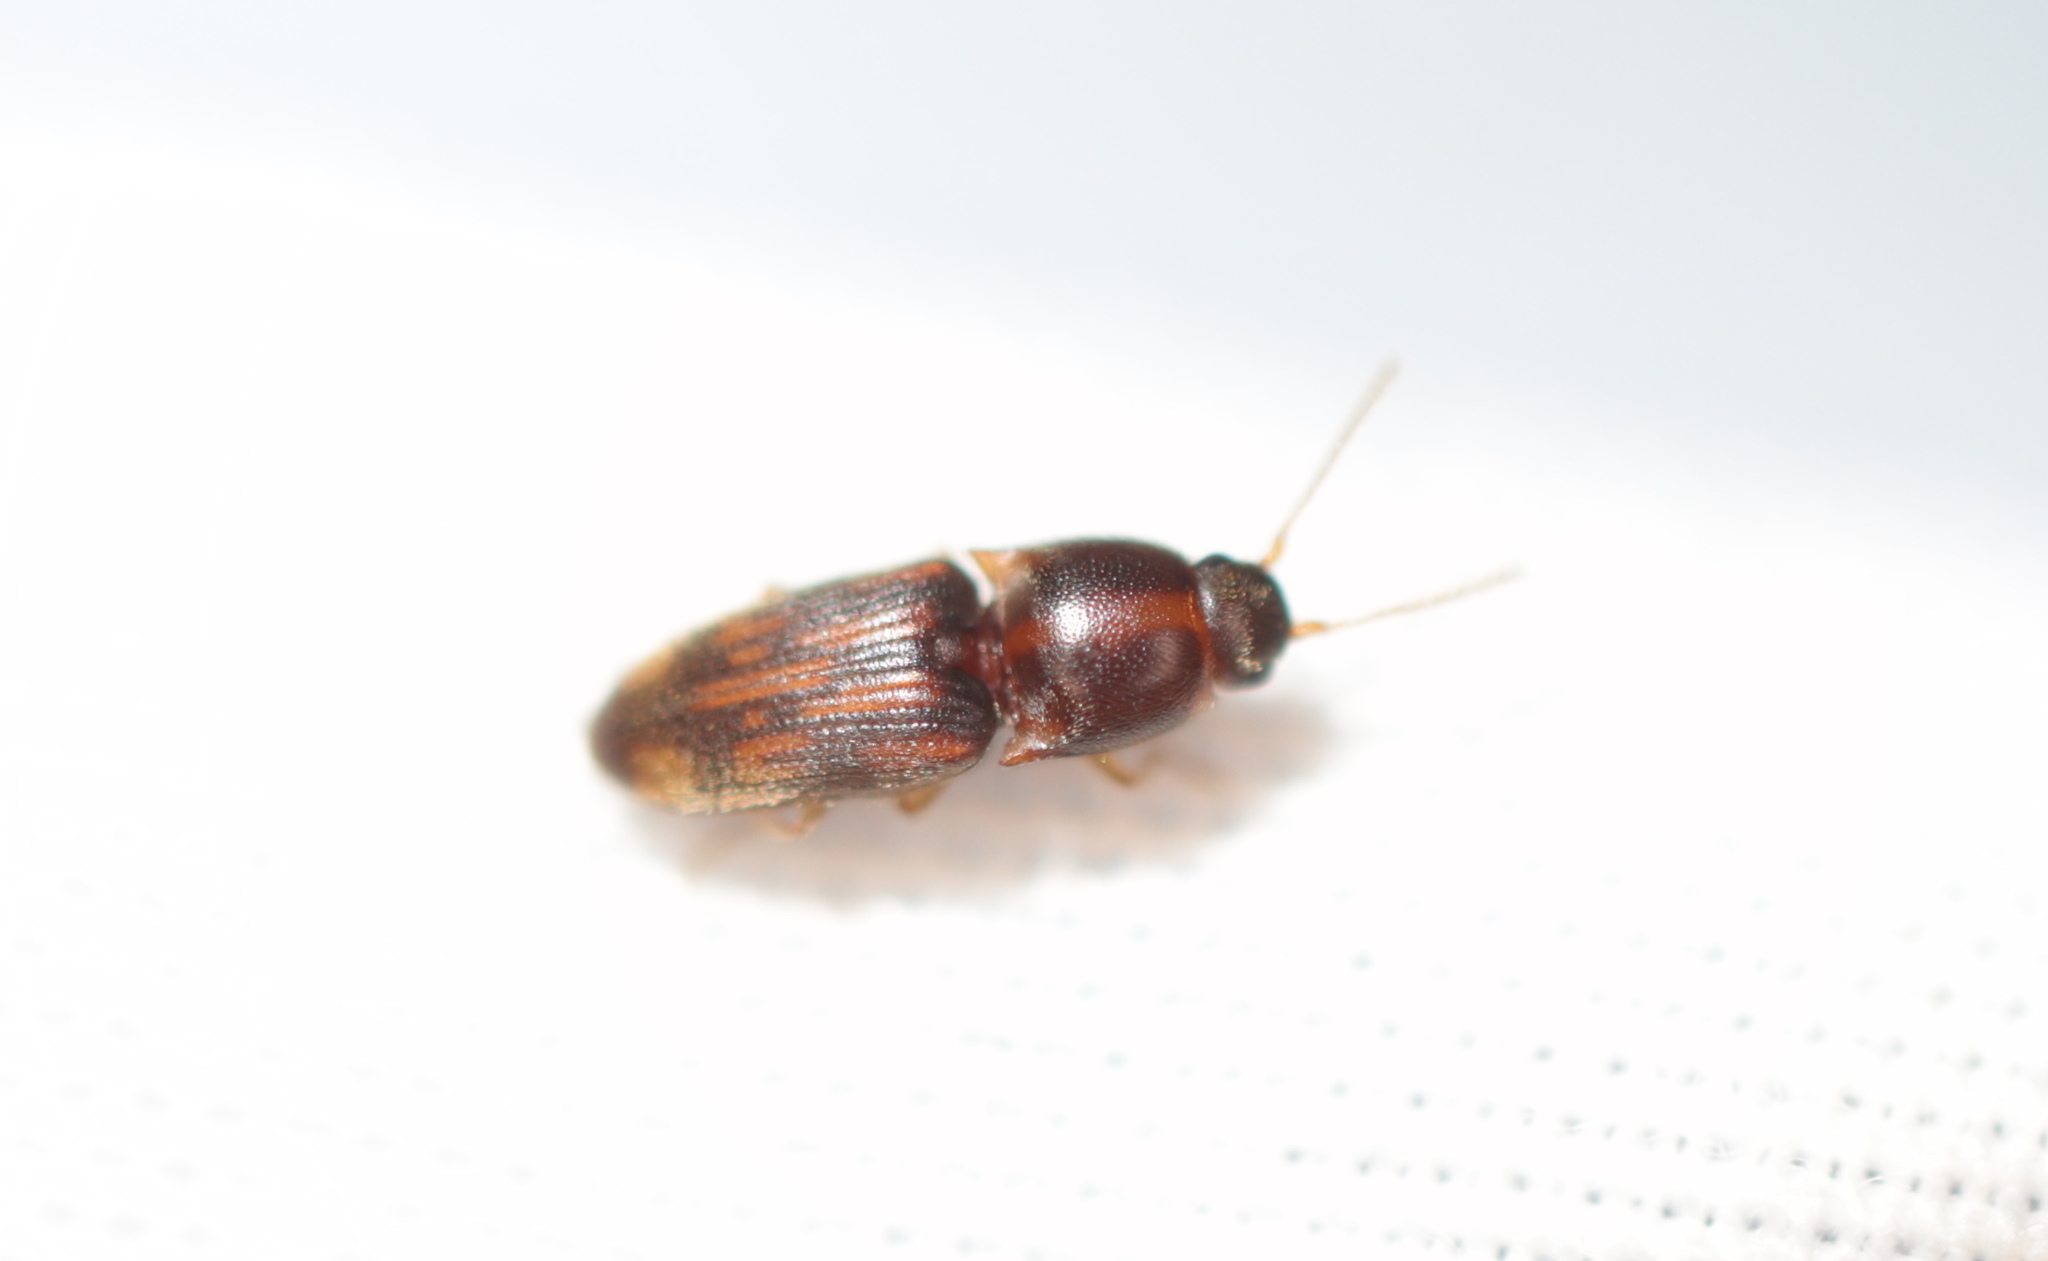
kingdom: Animalia
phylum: Arthropoda
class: Insecta
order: Coleoptera
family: Elateridae
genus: Monocrepidius
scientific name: Monocrepidius bellus
